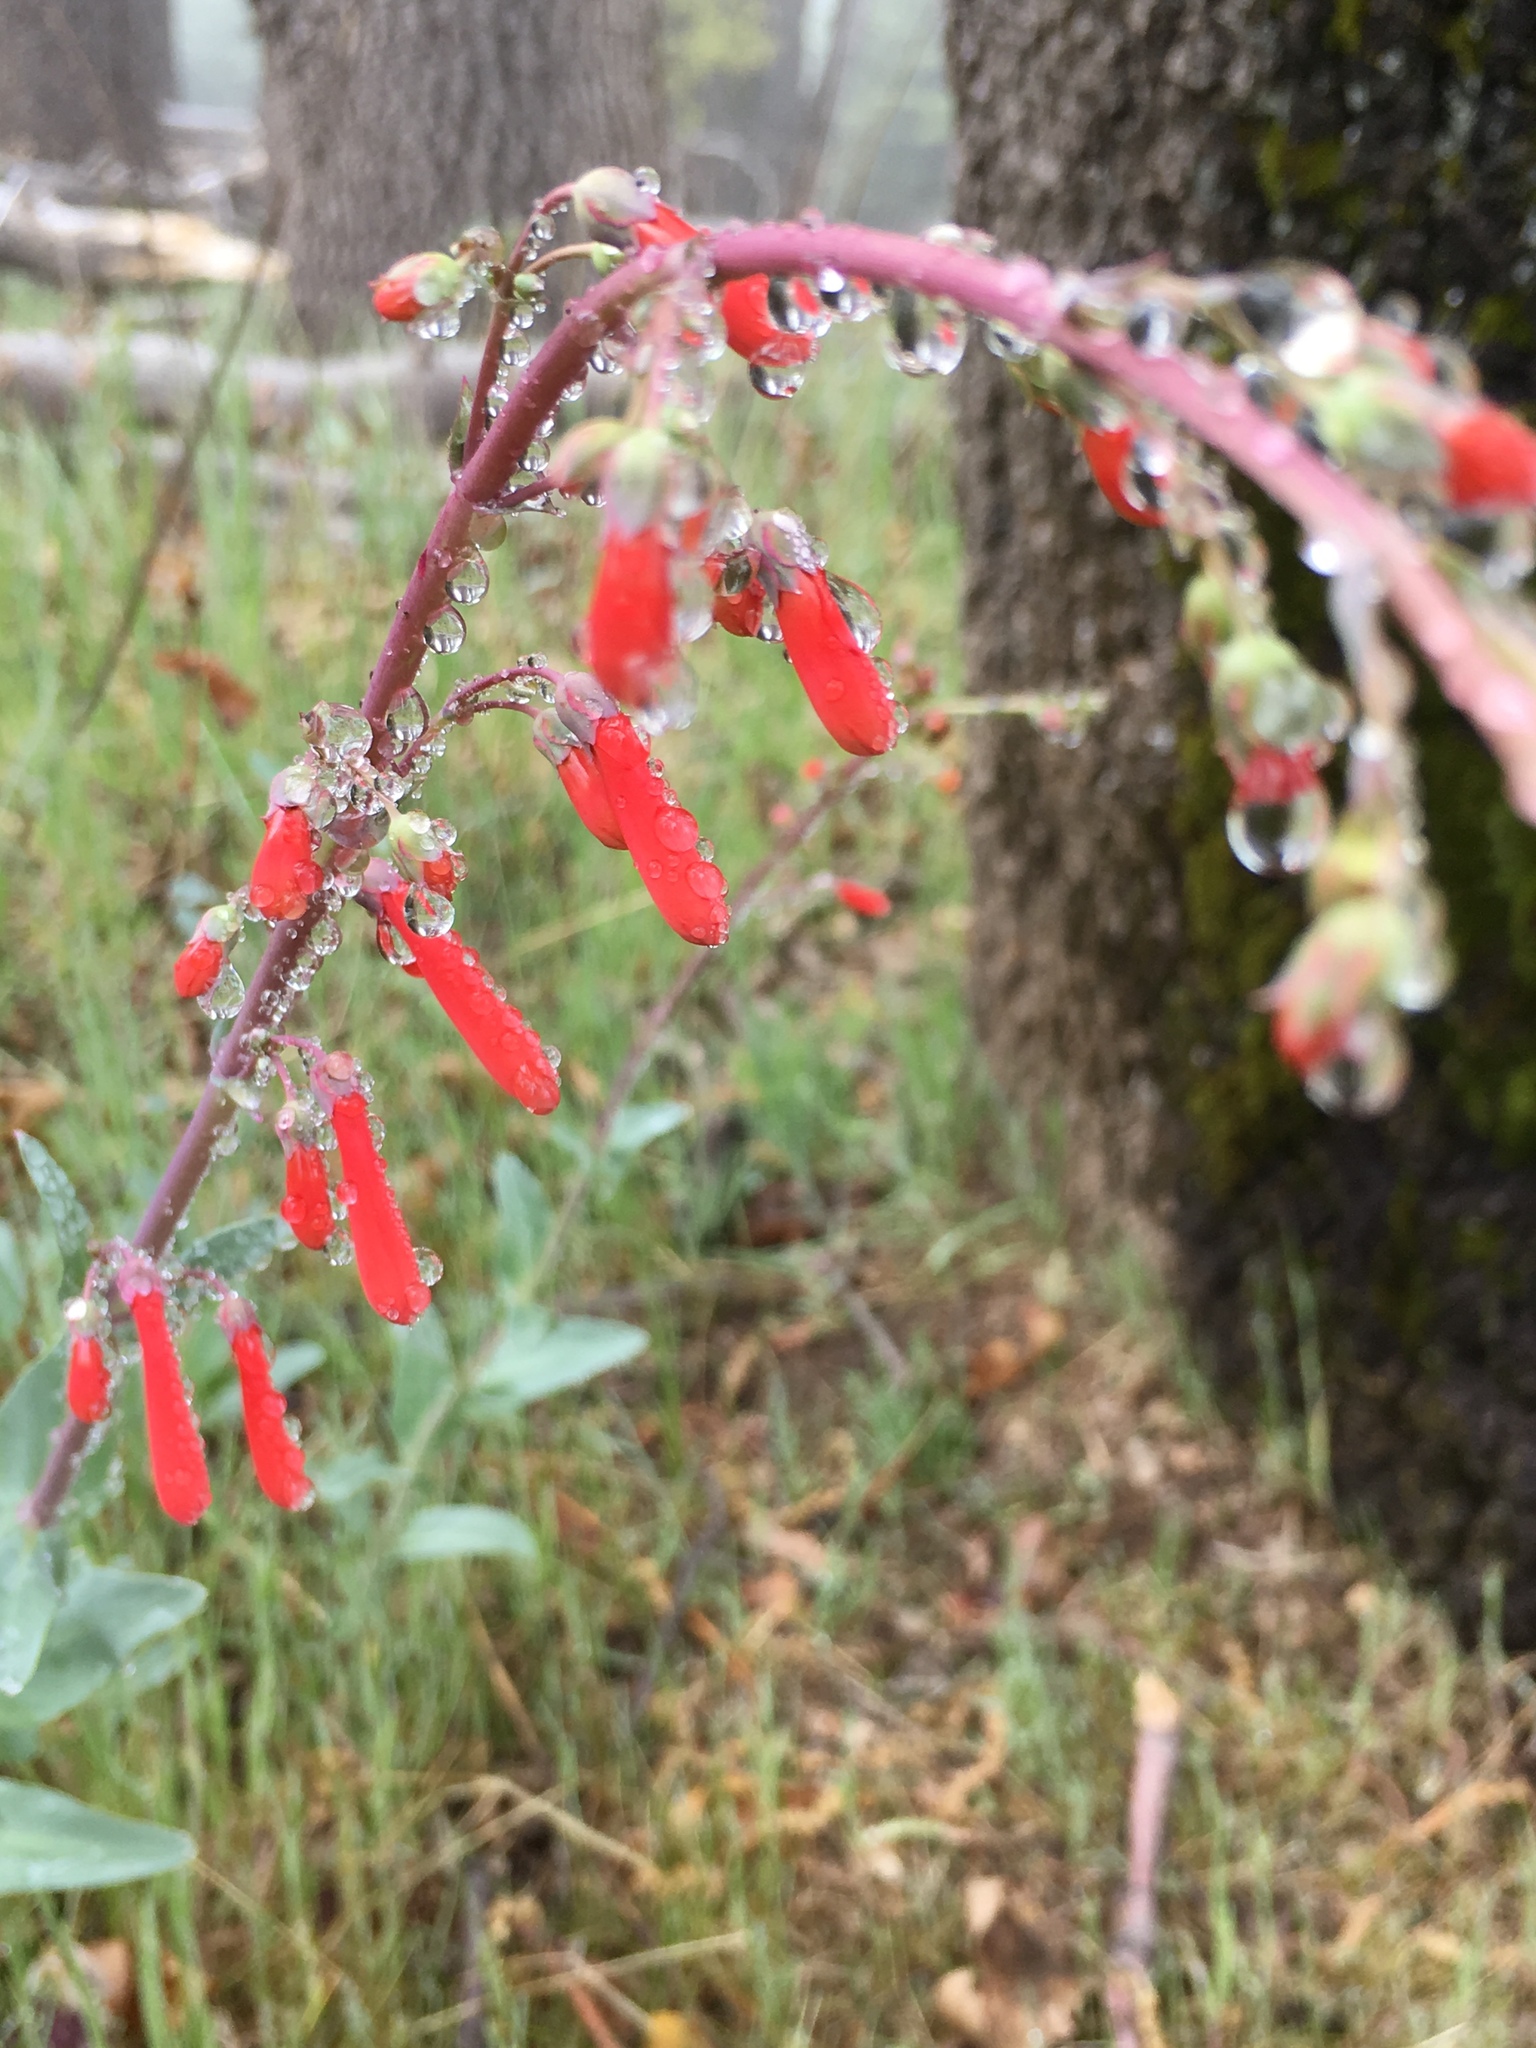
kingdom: Plantae
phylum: Tracheophyta
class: Magnoliopsida
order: Lamiales
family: Plantaginaceae
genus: Penstemon
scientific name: Penstemon centranthifolius
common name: Scarlet bugler
